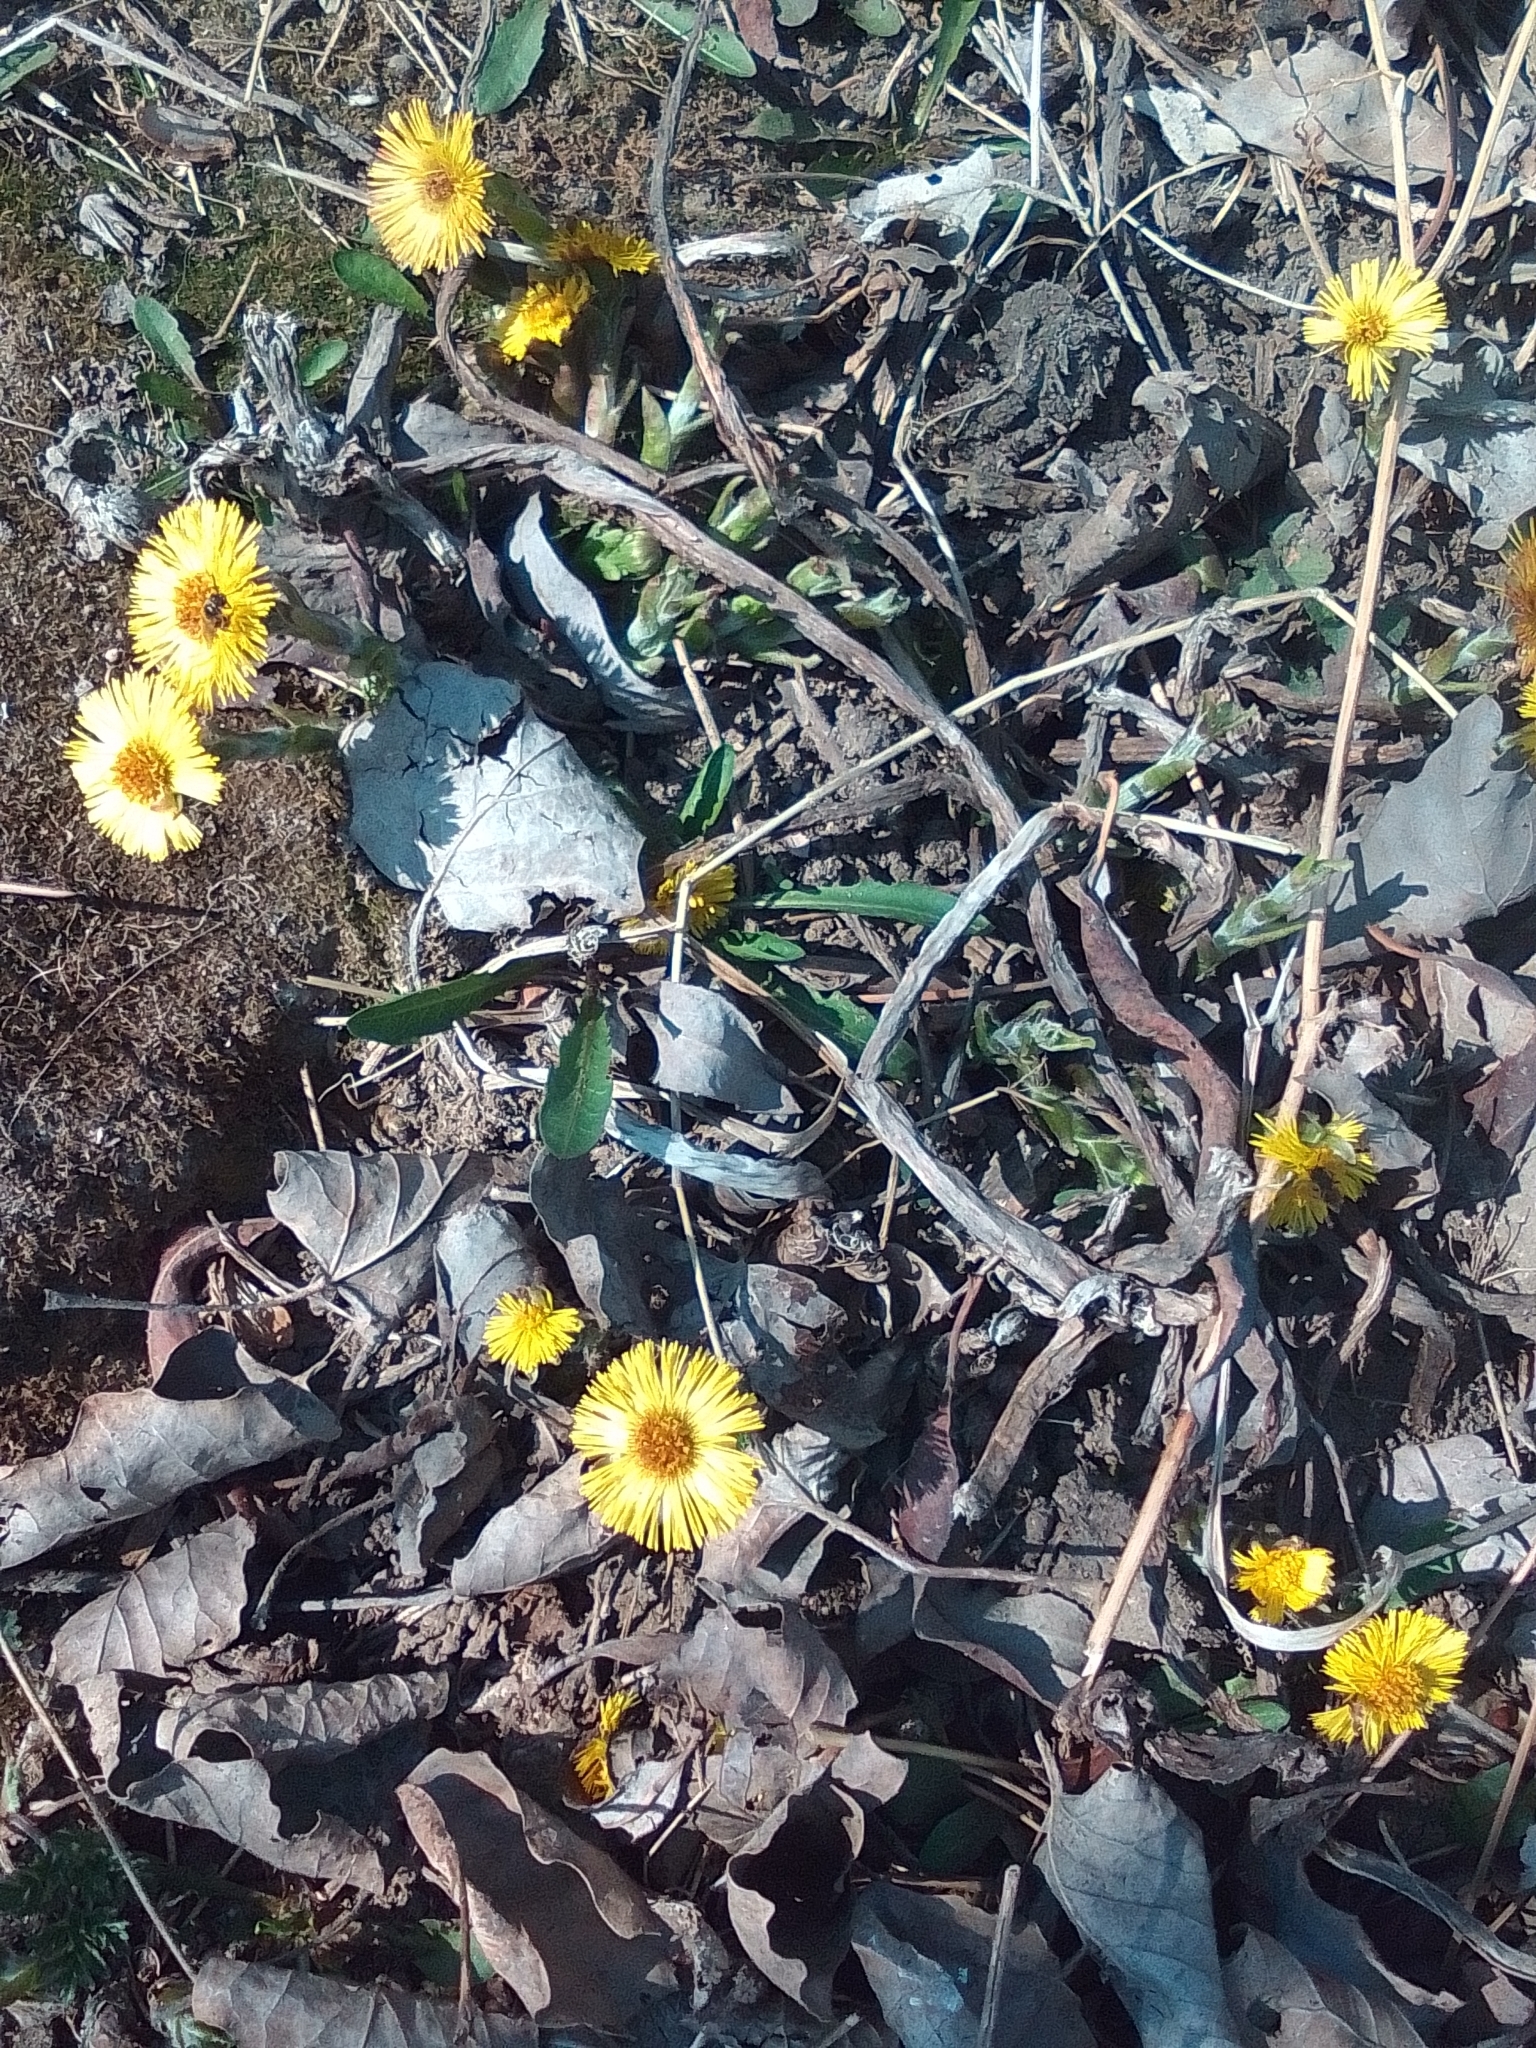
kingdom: Plantae
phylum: Tracheophyta
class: Magnoliopsida
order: Asterales
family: Asteraceae
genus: Tussilago
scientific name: Tussilago farfara
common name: Coltsfoot
